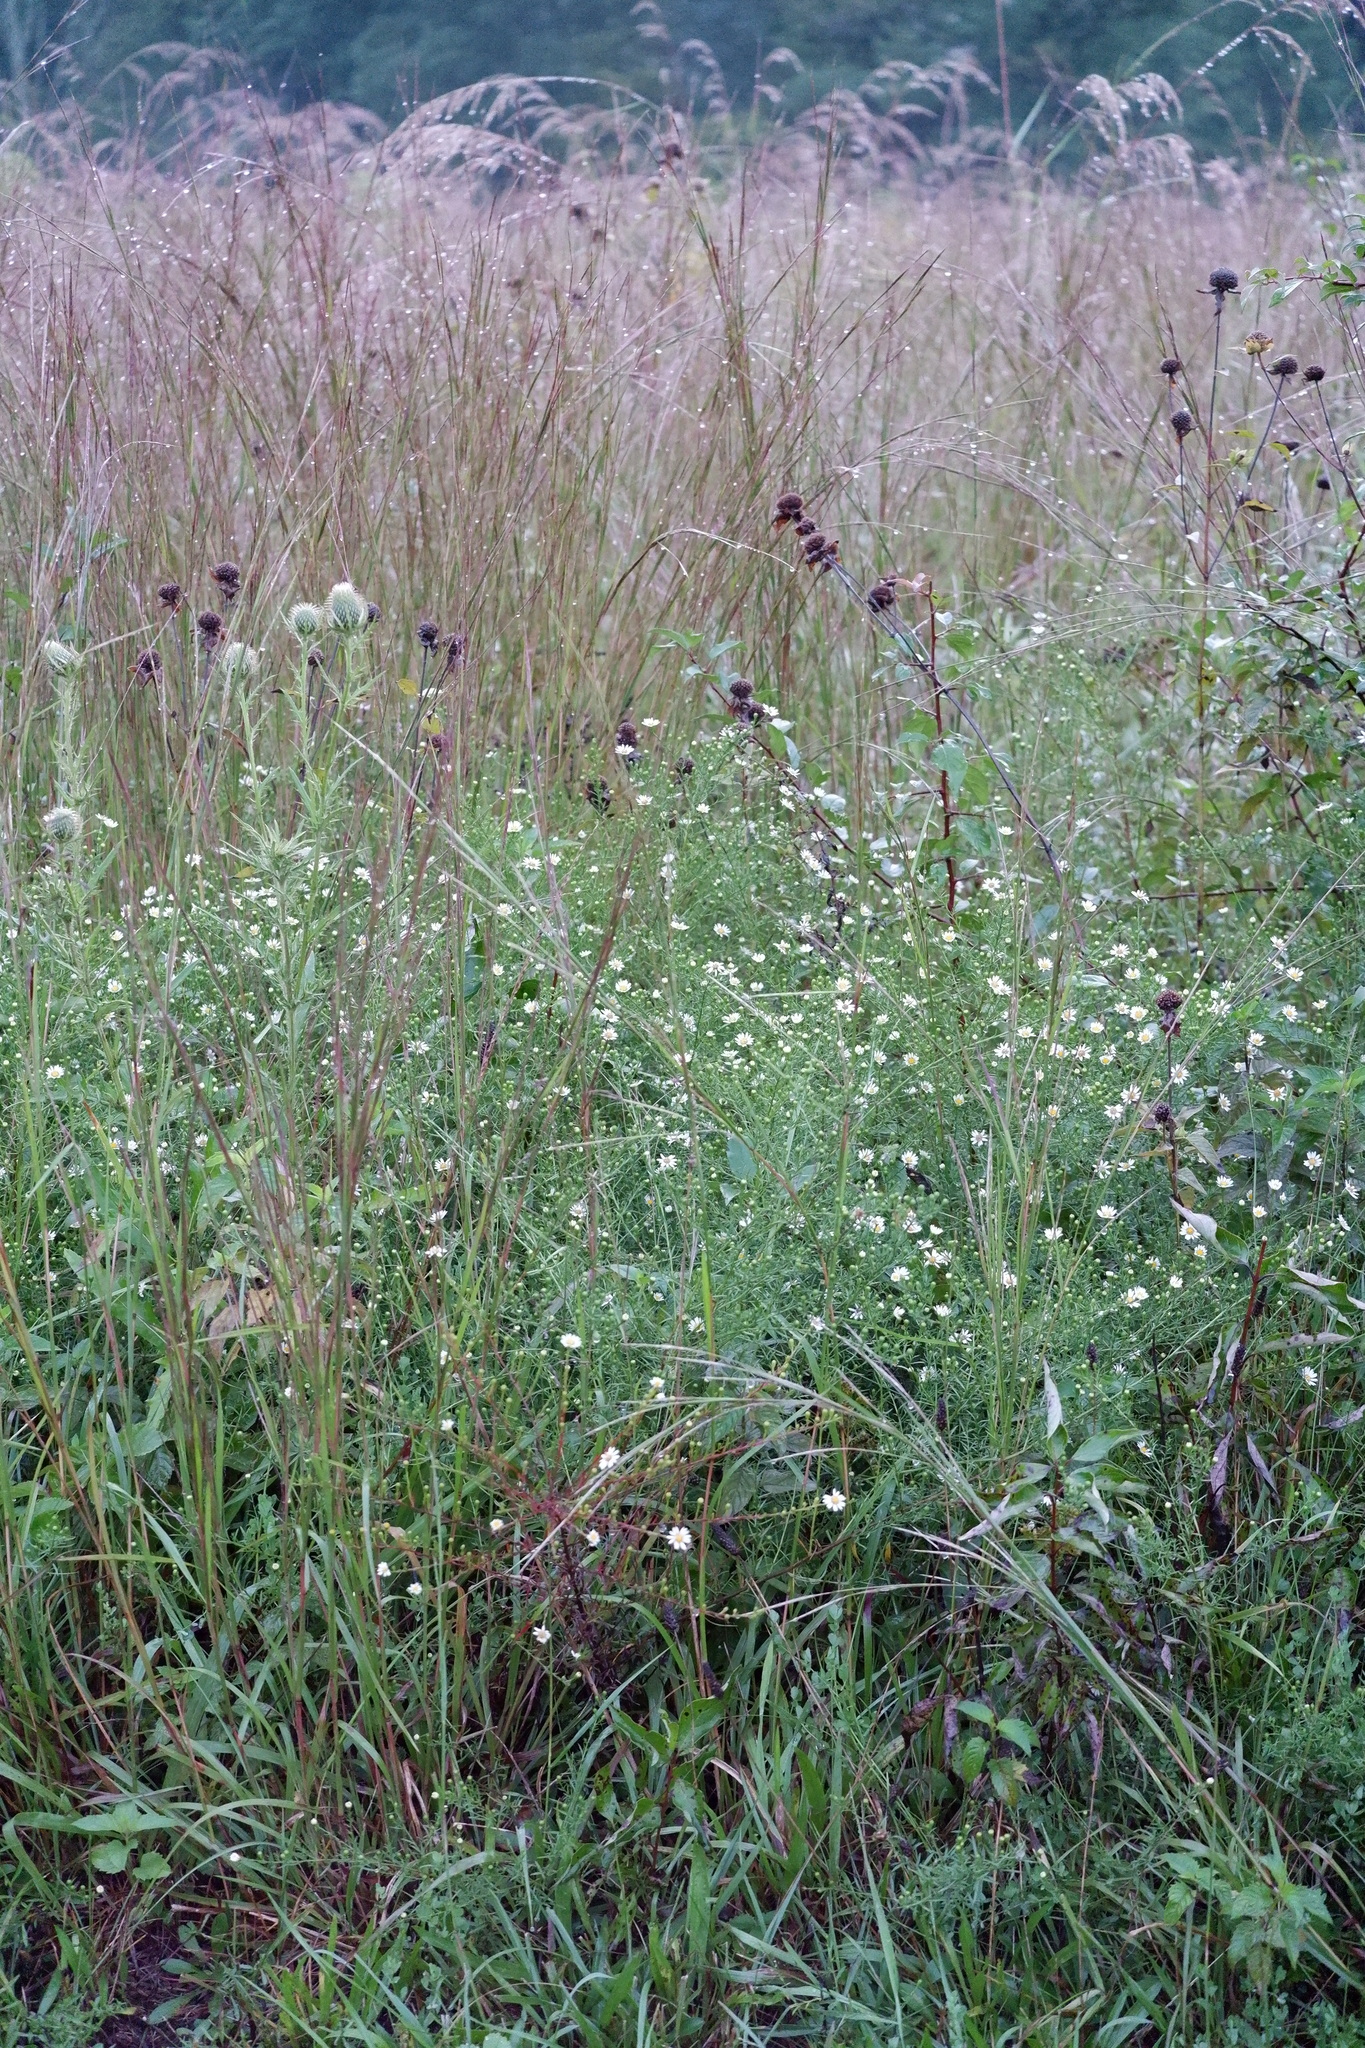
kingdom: Plantae
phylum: Tracheophyta
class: Magnoliopsida
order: Asterales
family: Asteraceae
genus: Symphyotrichum
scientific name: Symphyotrichum dumosum
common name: Bushy aster
